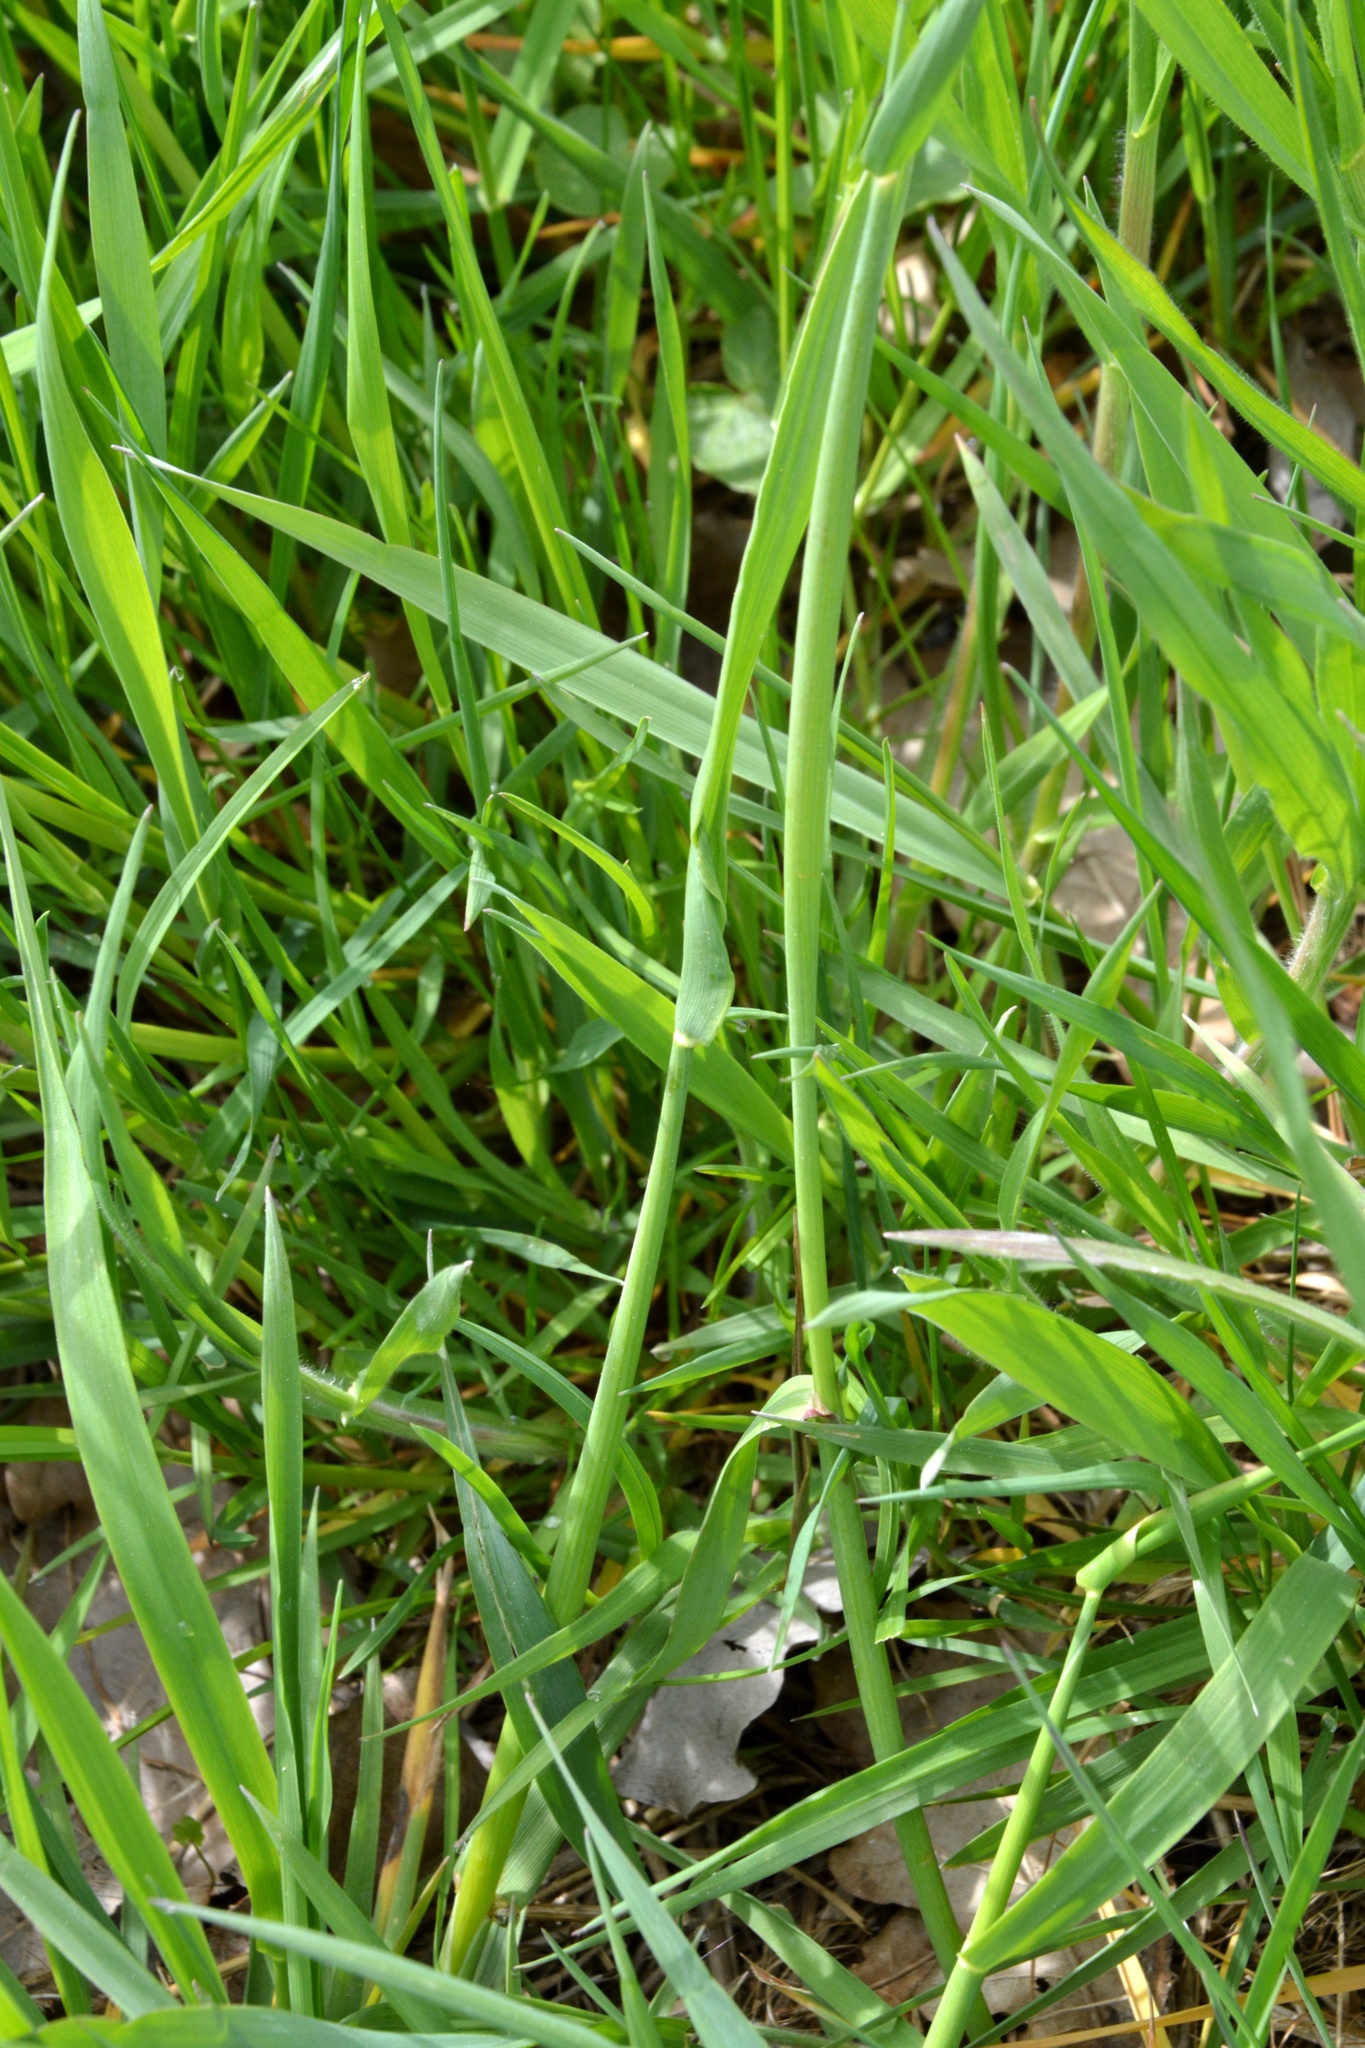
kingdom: Plantae
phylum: Tracheophyta
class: Liliopsida
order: Poales
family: Poaceae
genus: Alopecurus
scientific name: Alopecurus pratensis
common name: Meadow foxtail
